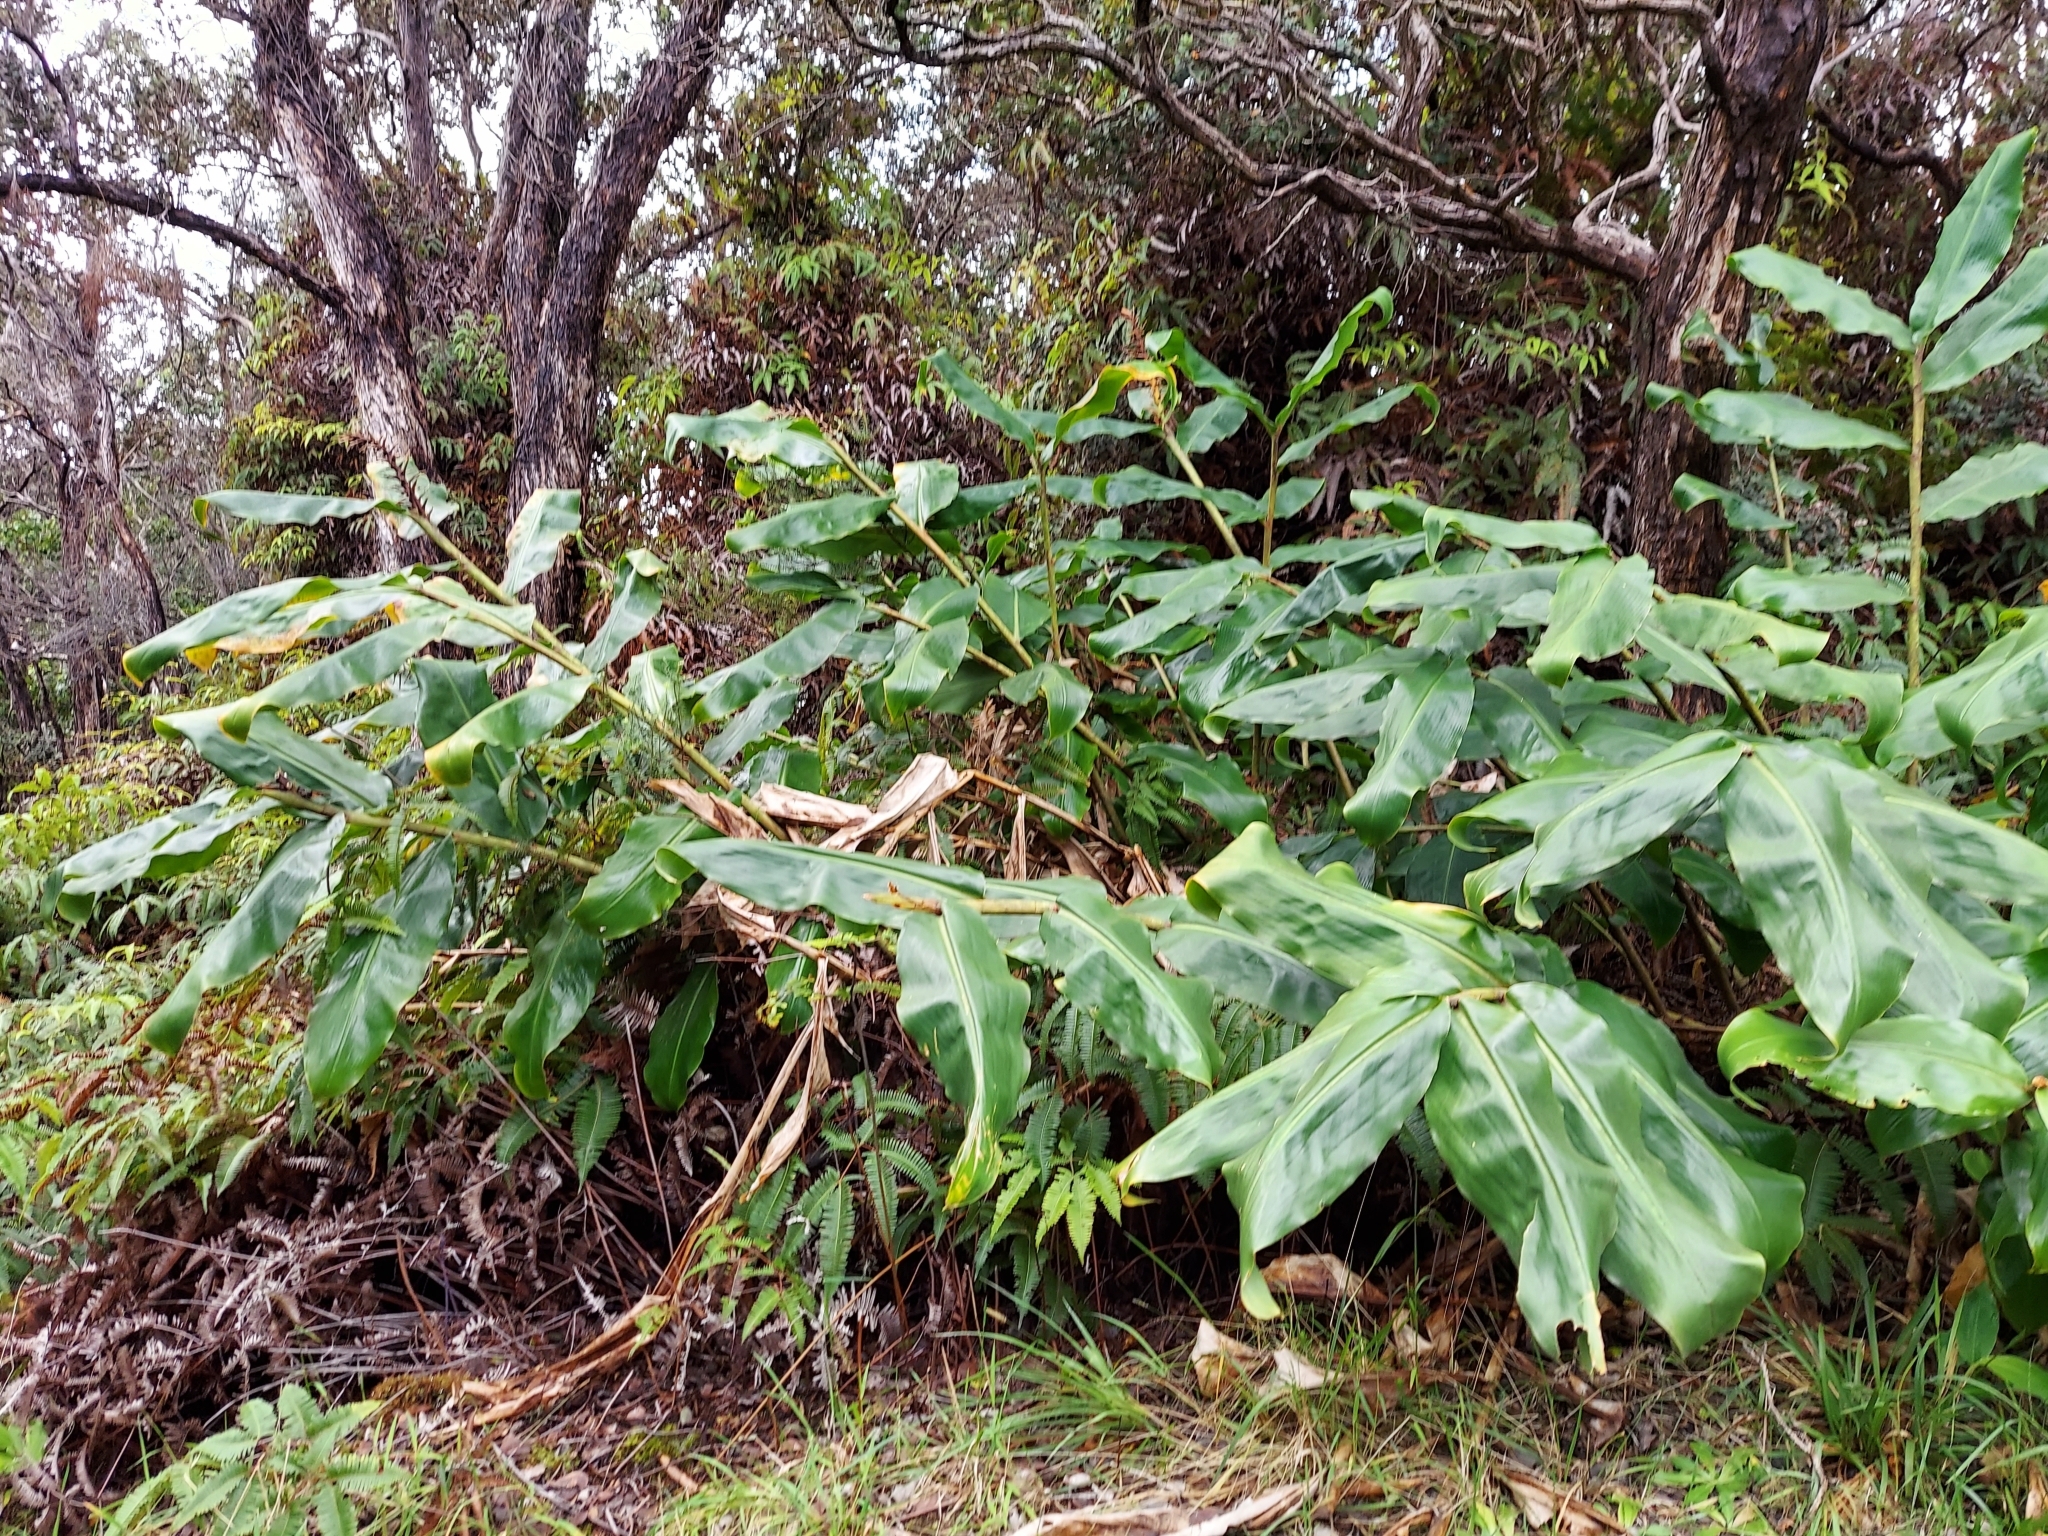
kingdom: Plantae
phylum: Tracheophyta
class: Liliopsida
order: Zingiberales
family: Zingiberaceae
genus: Hedychium
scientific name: Hedychium gardnerianum
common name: Himalayan ginger
